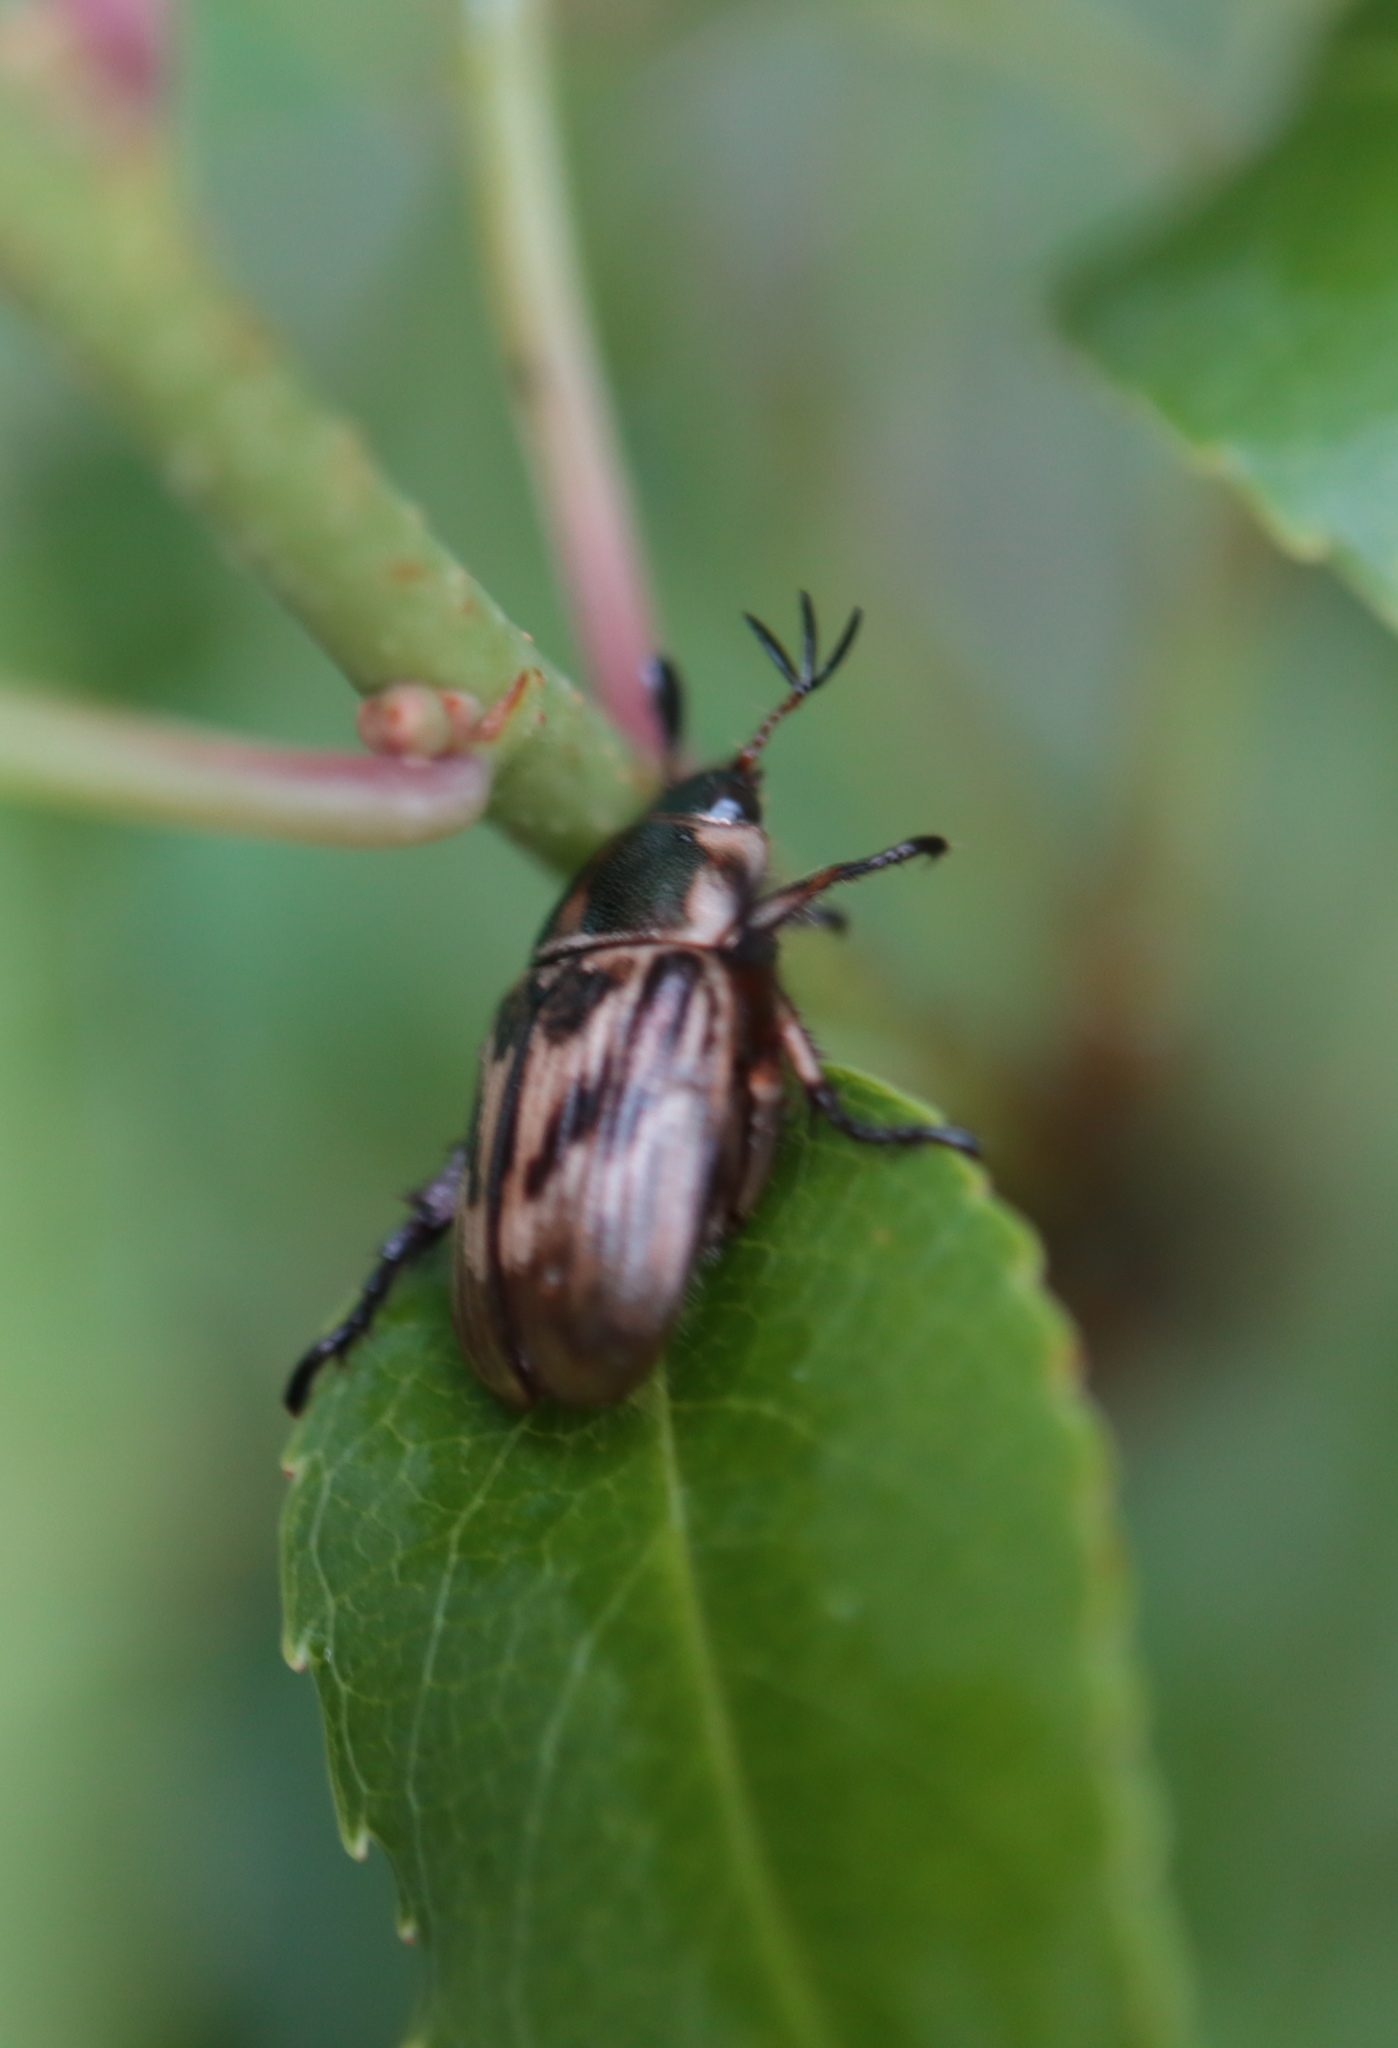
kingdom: Animalia
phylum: Arthropoda
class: Insecta
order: Coleoptera
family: Scarabaeidae
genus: Exomala
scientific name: Exomala orientalis
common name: Oriental beetle
